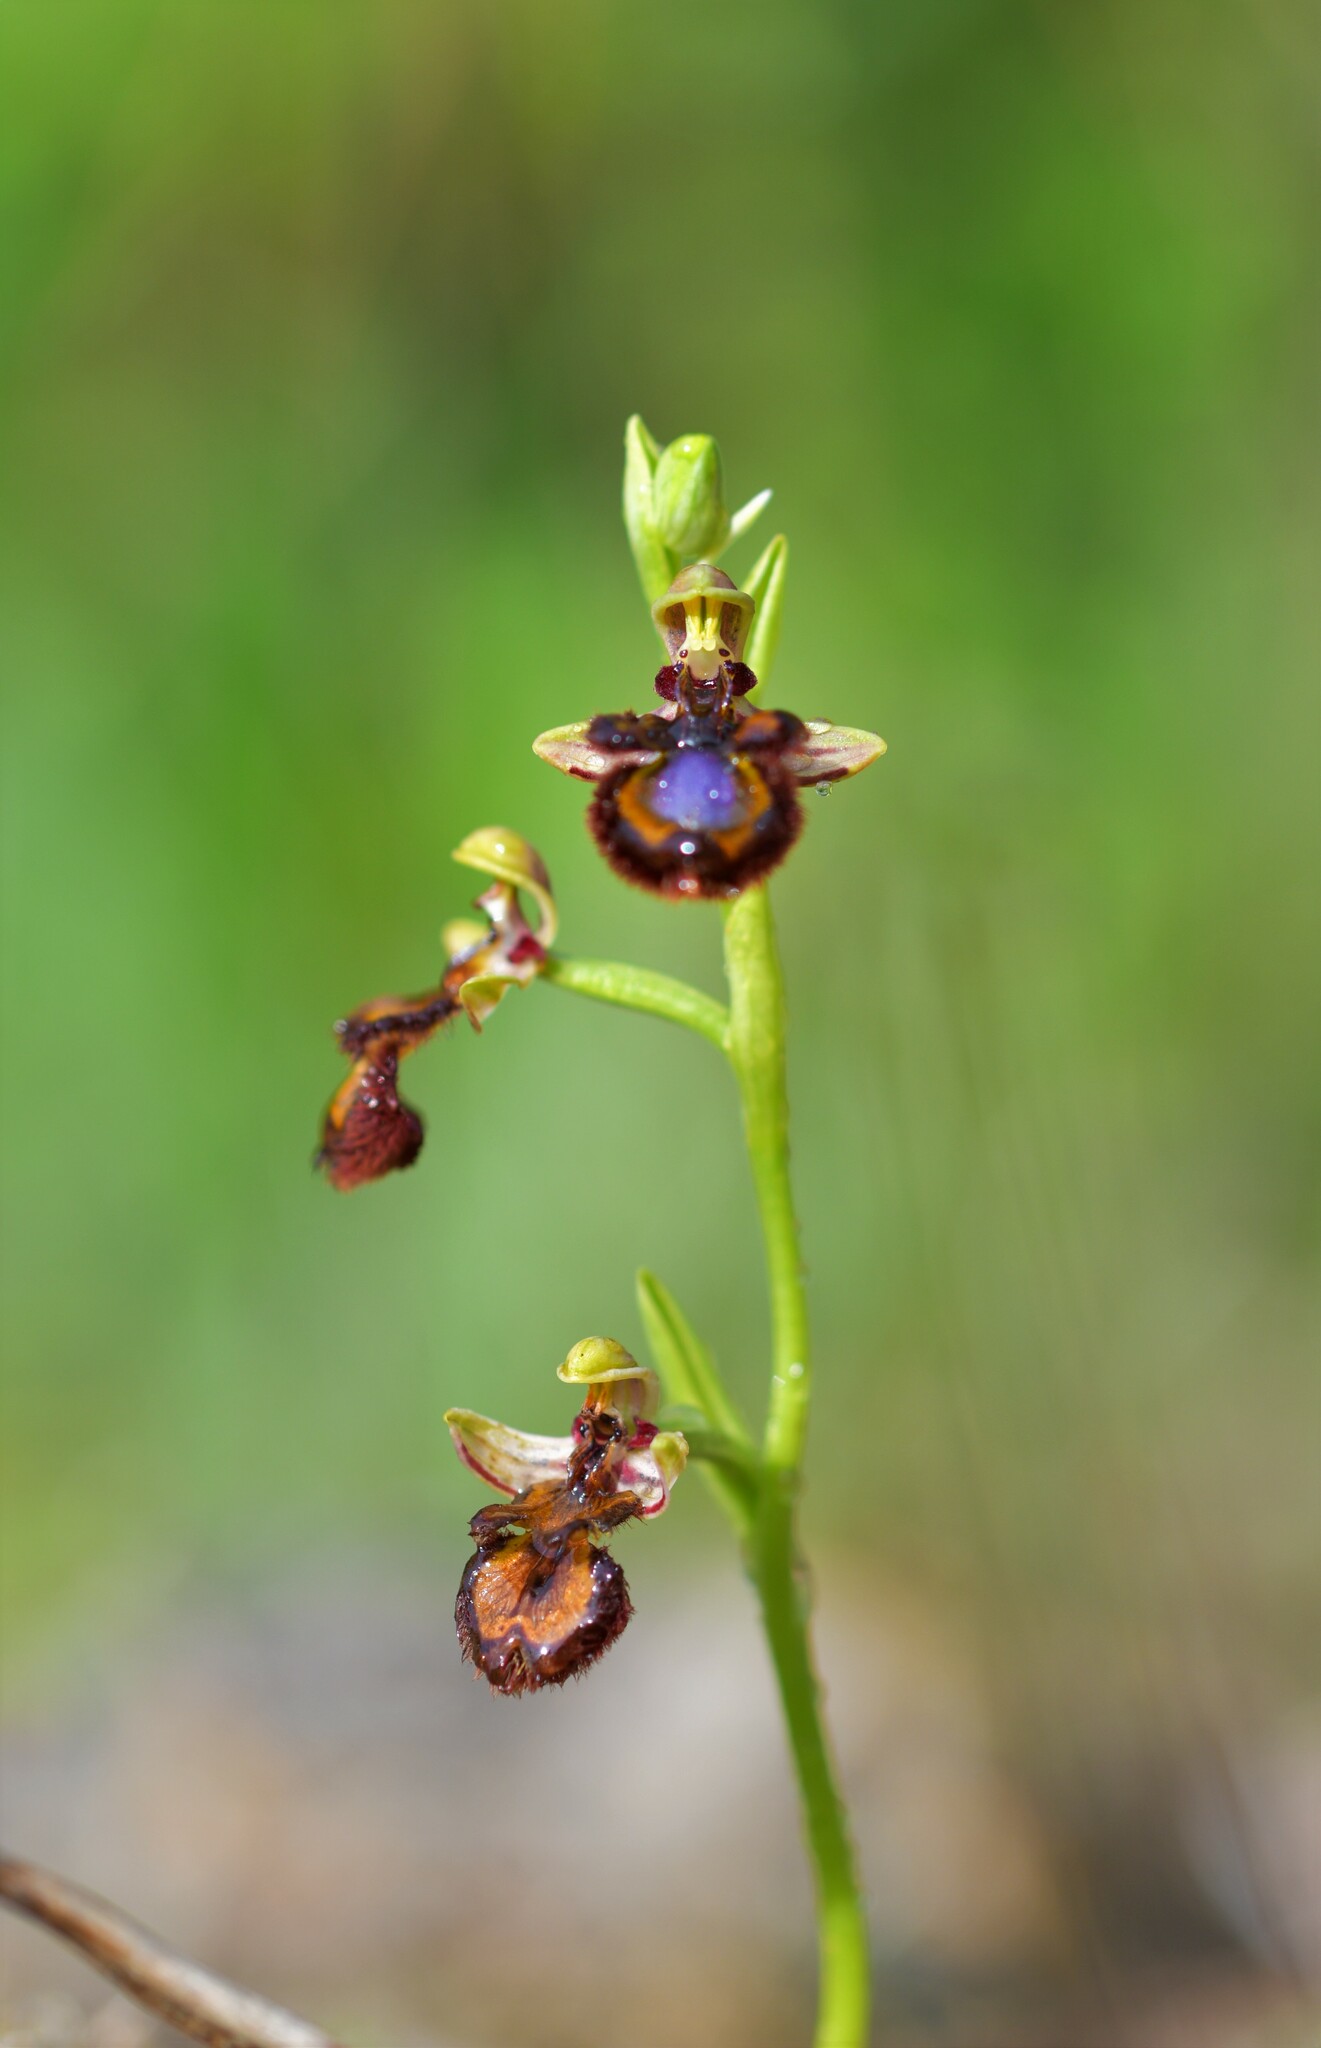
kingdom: Plantae
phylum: Tracheophyta
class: Liliopsida
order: Asparagales
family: Orchidaceae
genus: Ophrys
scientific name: Ophrys speculum
